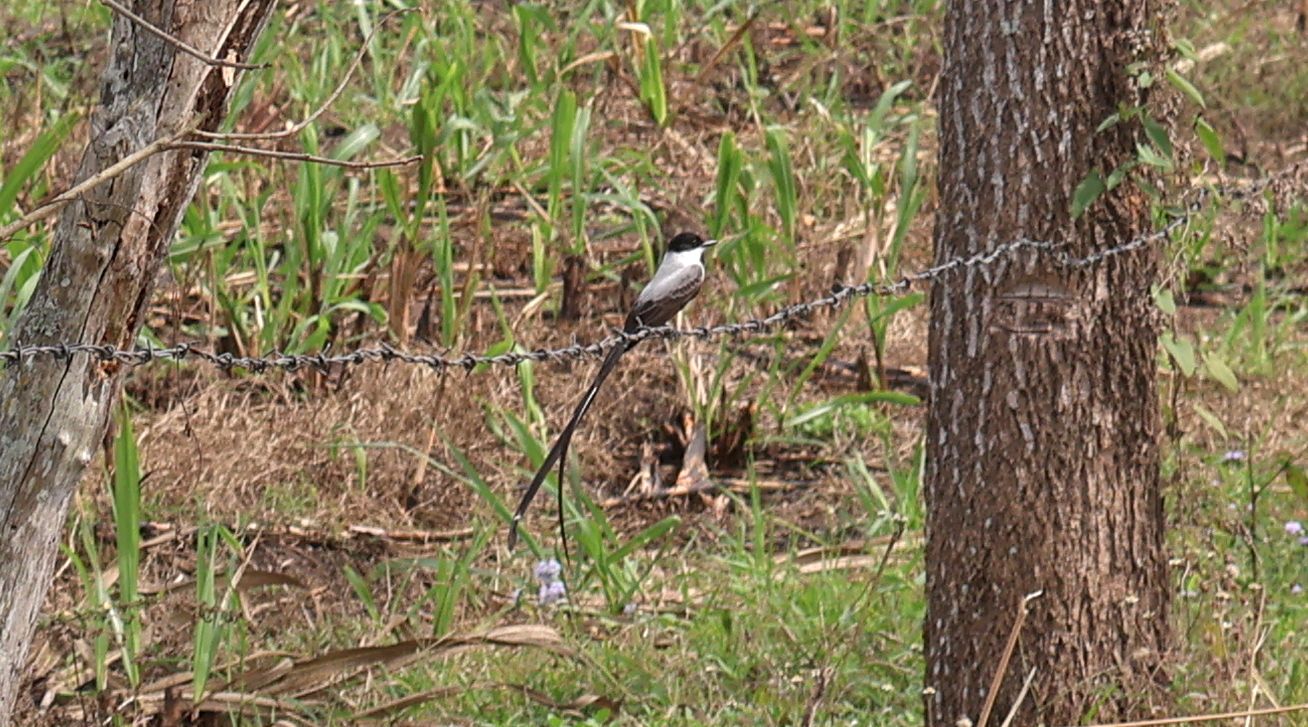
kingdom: Animalia
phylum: Chordata
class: Aves
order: Passeriformes
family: Tyrannidae
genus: Tyrannus
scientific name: Tyrannus savana
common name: Fork-tailed flycatcher
